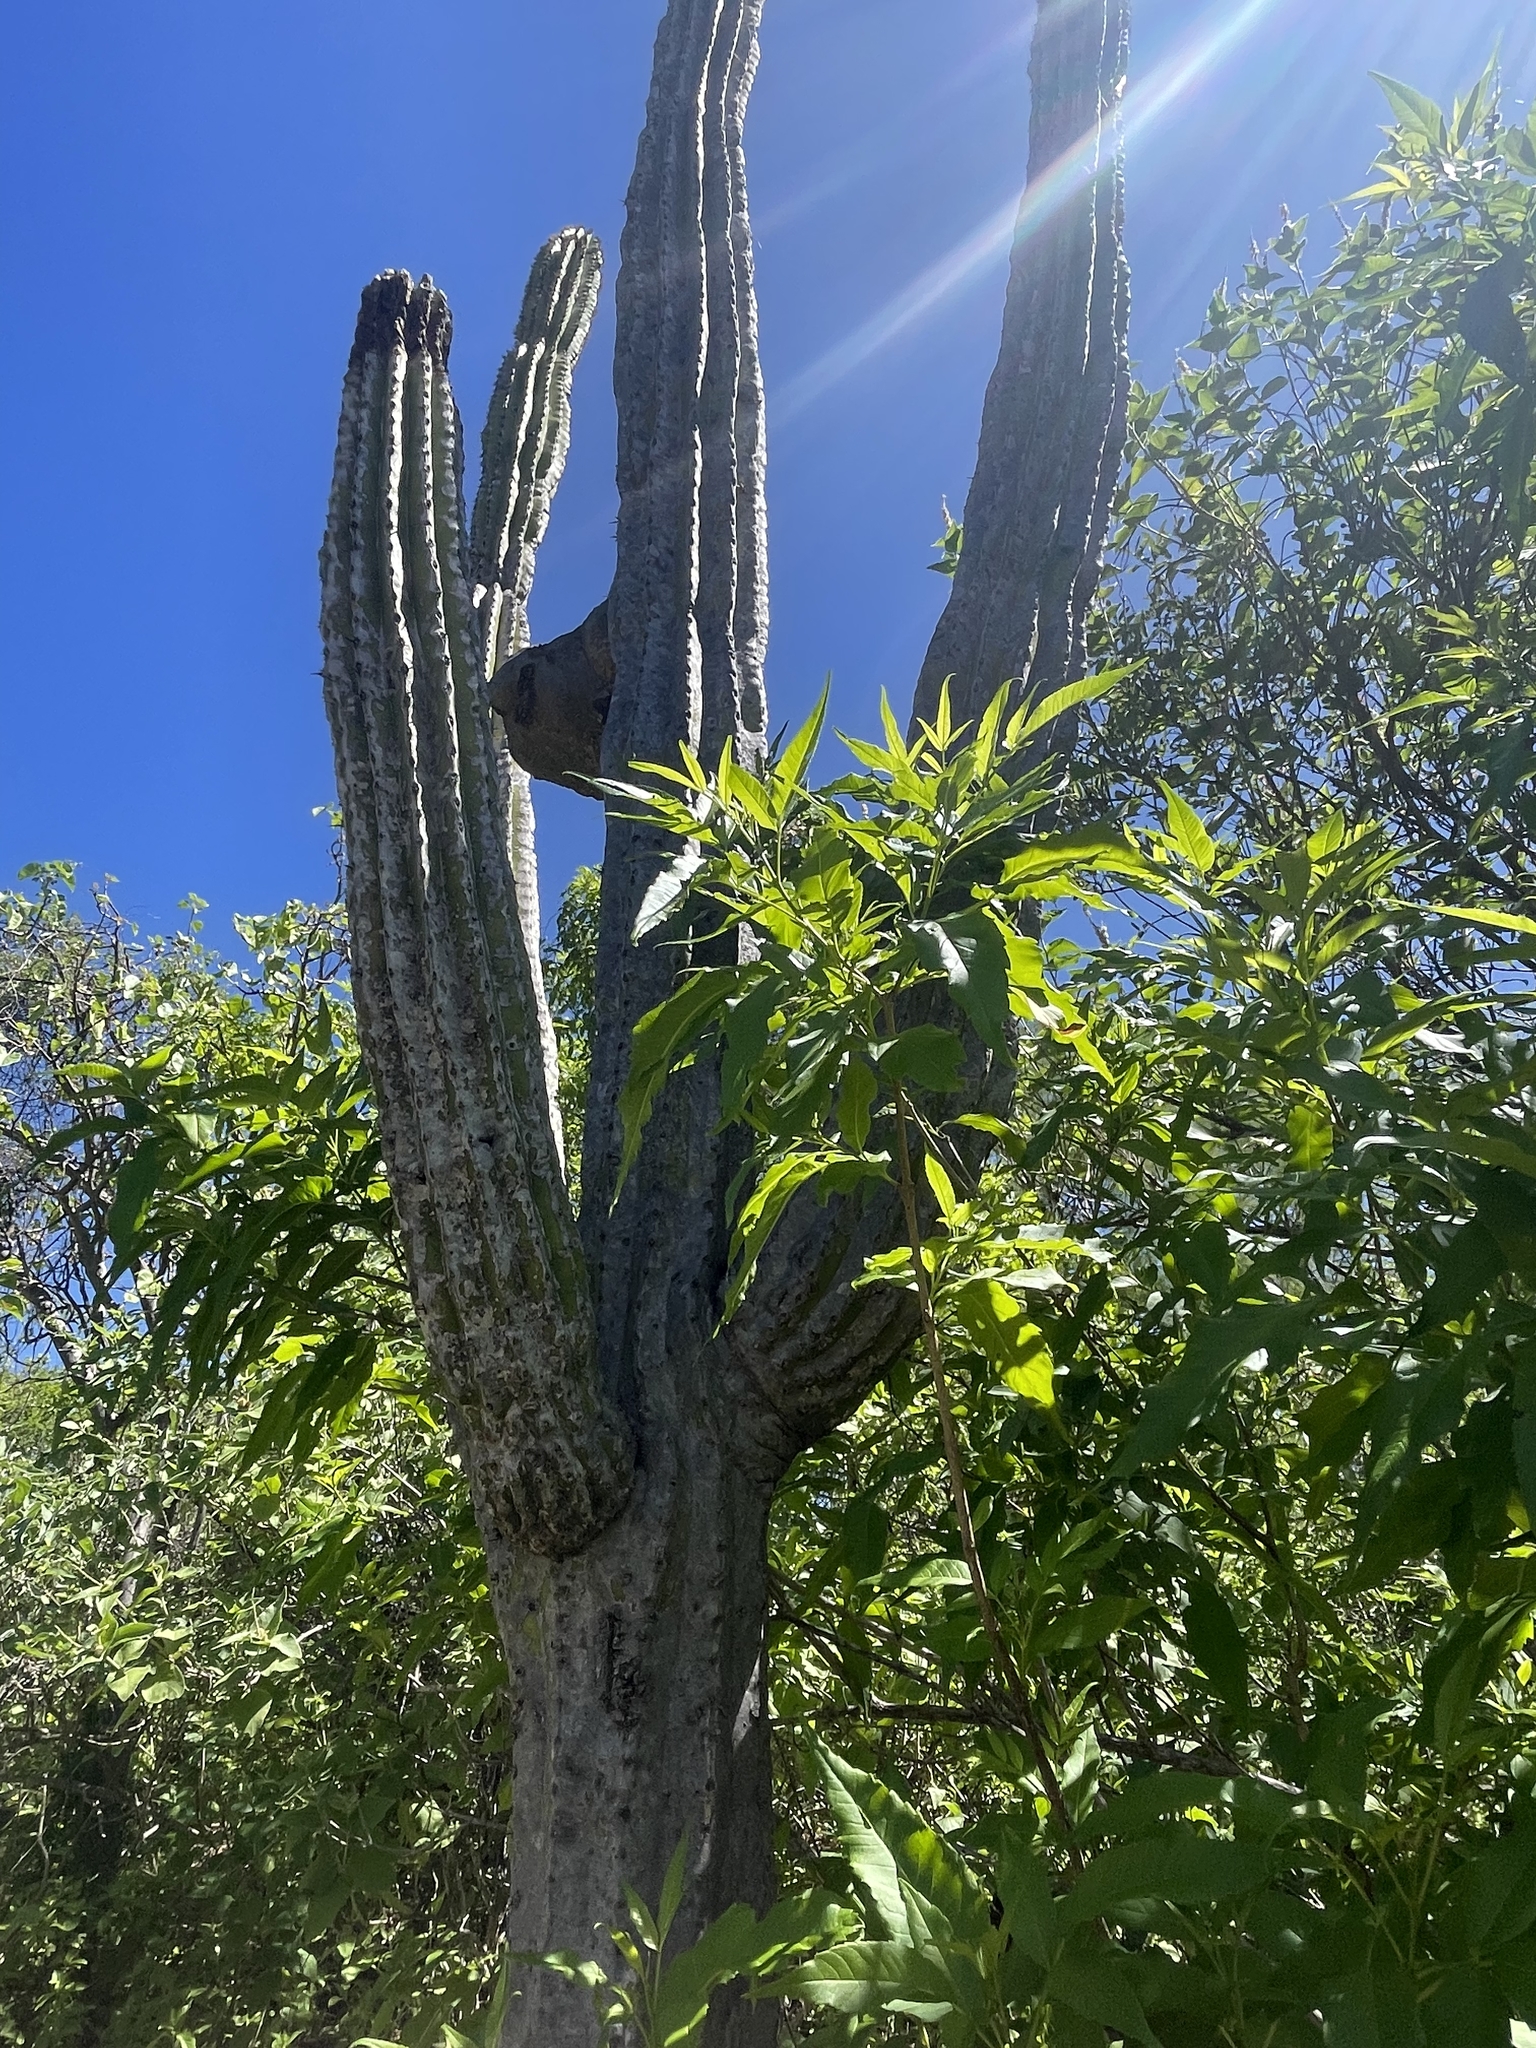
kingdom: Plantae
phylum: Tracheophyta
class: Magnoliopsida
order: Caryophyllales
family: Cactaceae
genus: Pachycereus
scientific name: Pachycereus pecten-aboriginum
